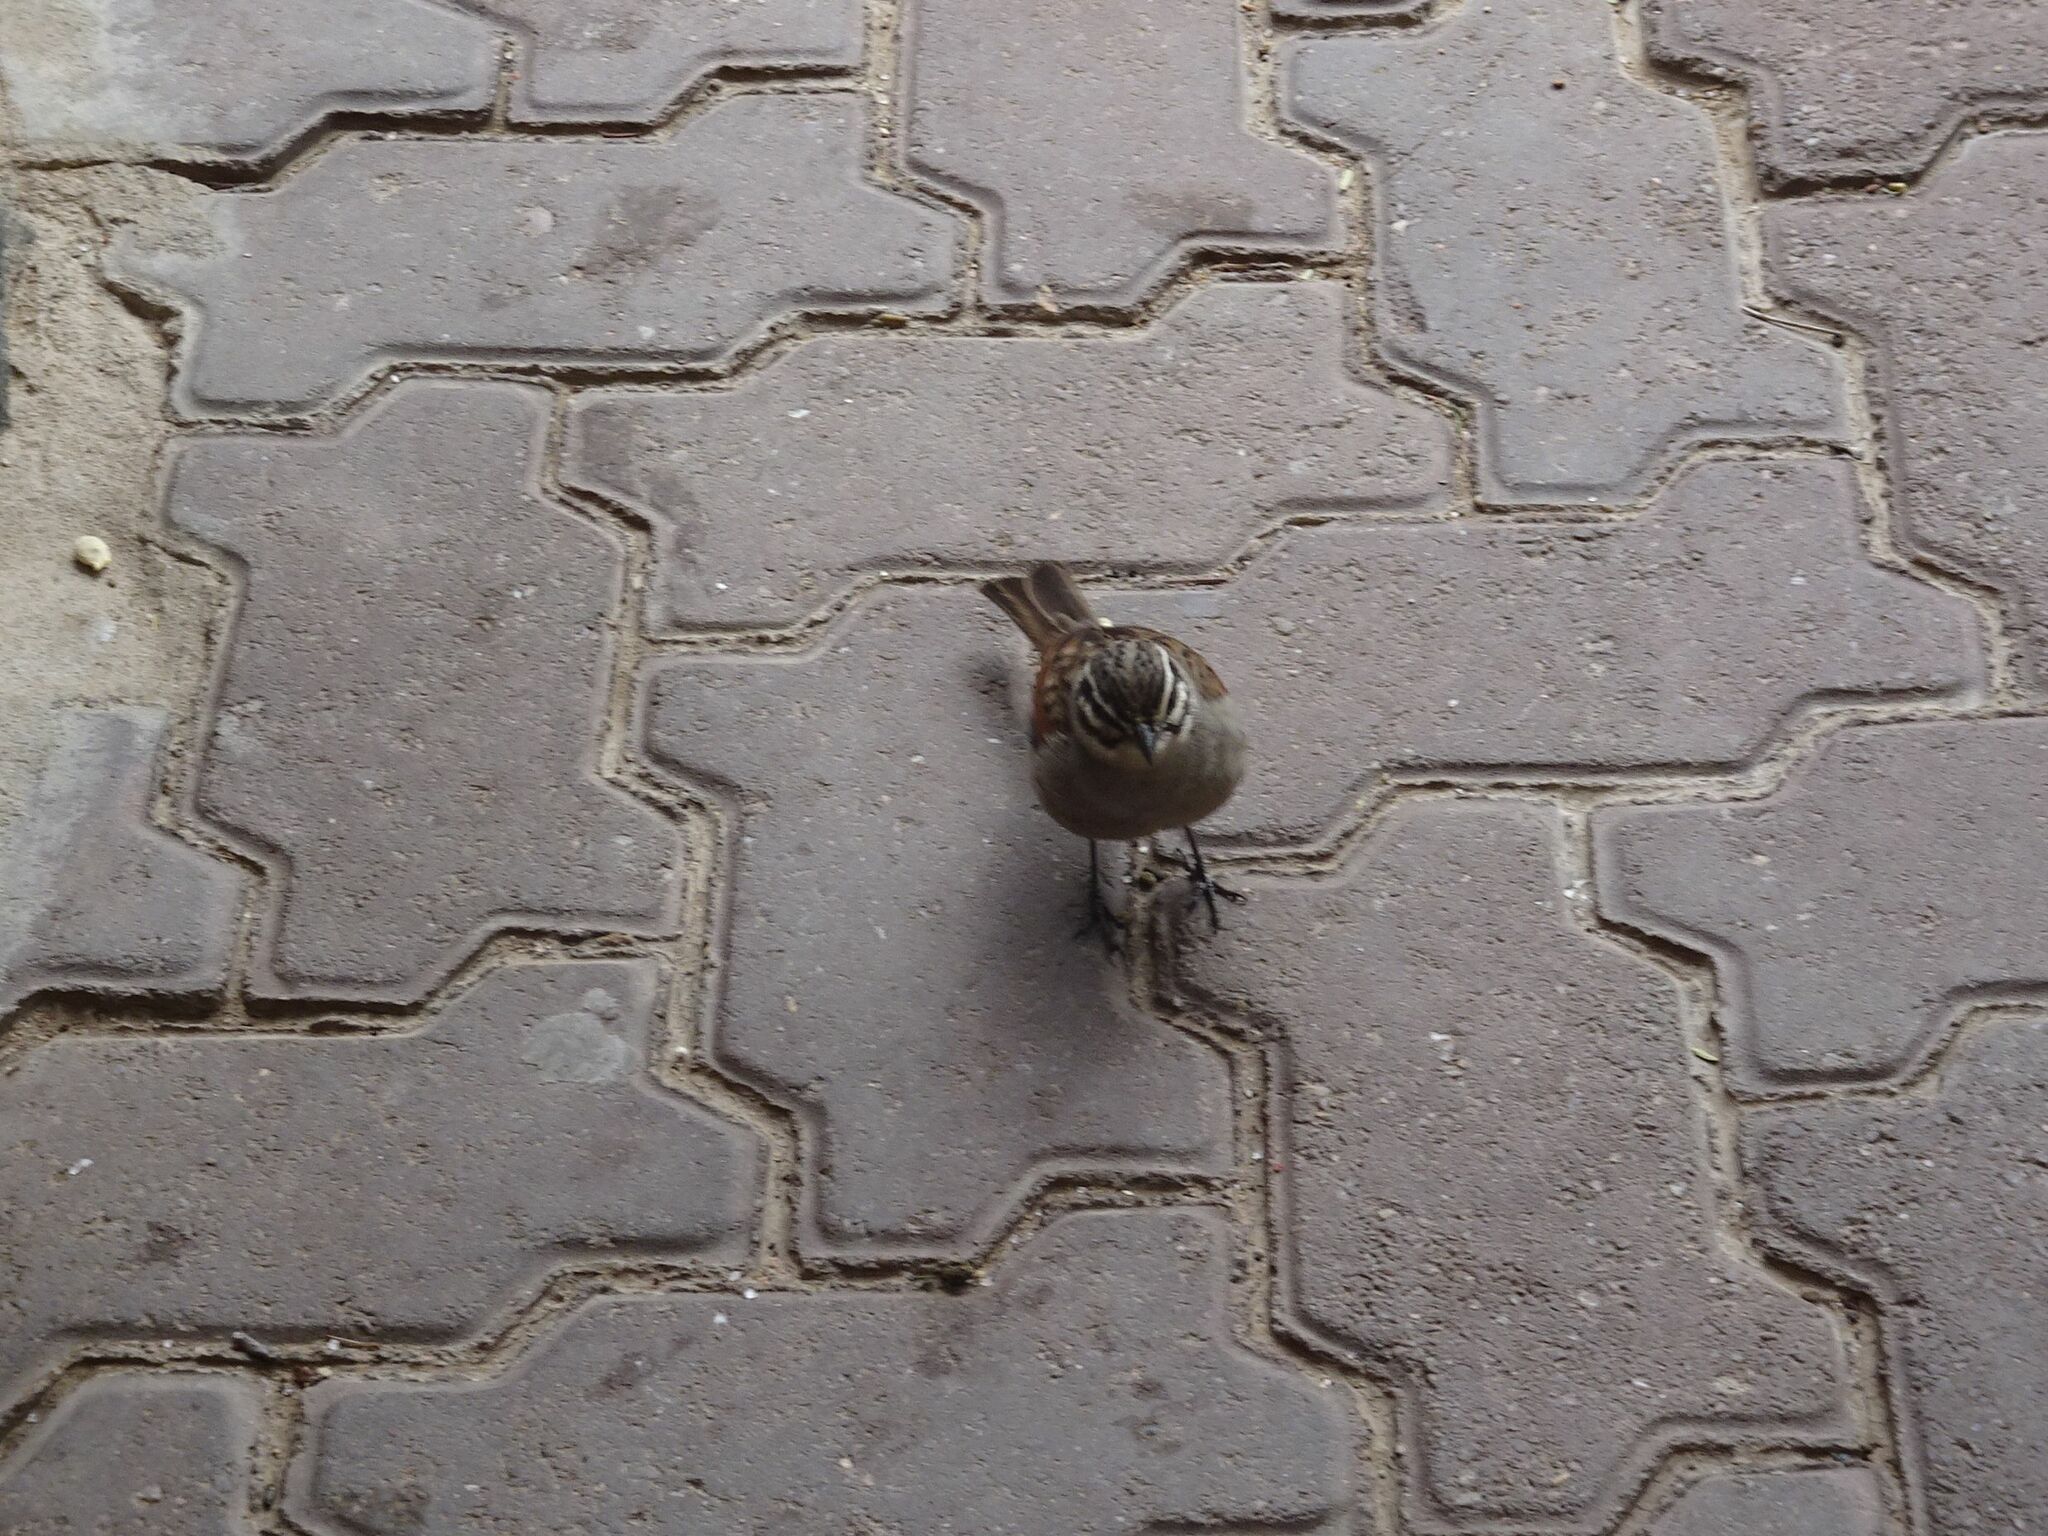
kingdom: Animalia
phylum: Chordata
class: Aves
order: Passeriformes
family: Emberizidae
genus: Emberiza
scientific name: Emberiza capensis
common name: Cape bunting
